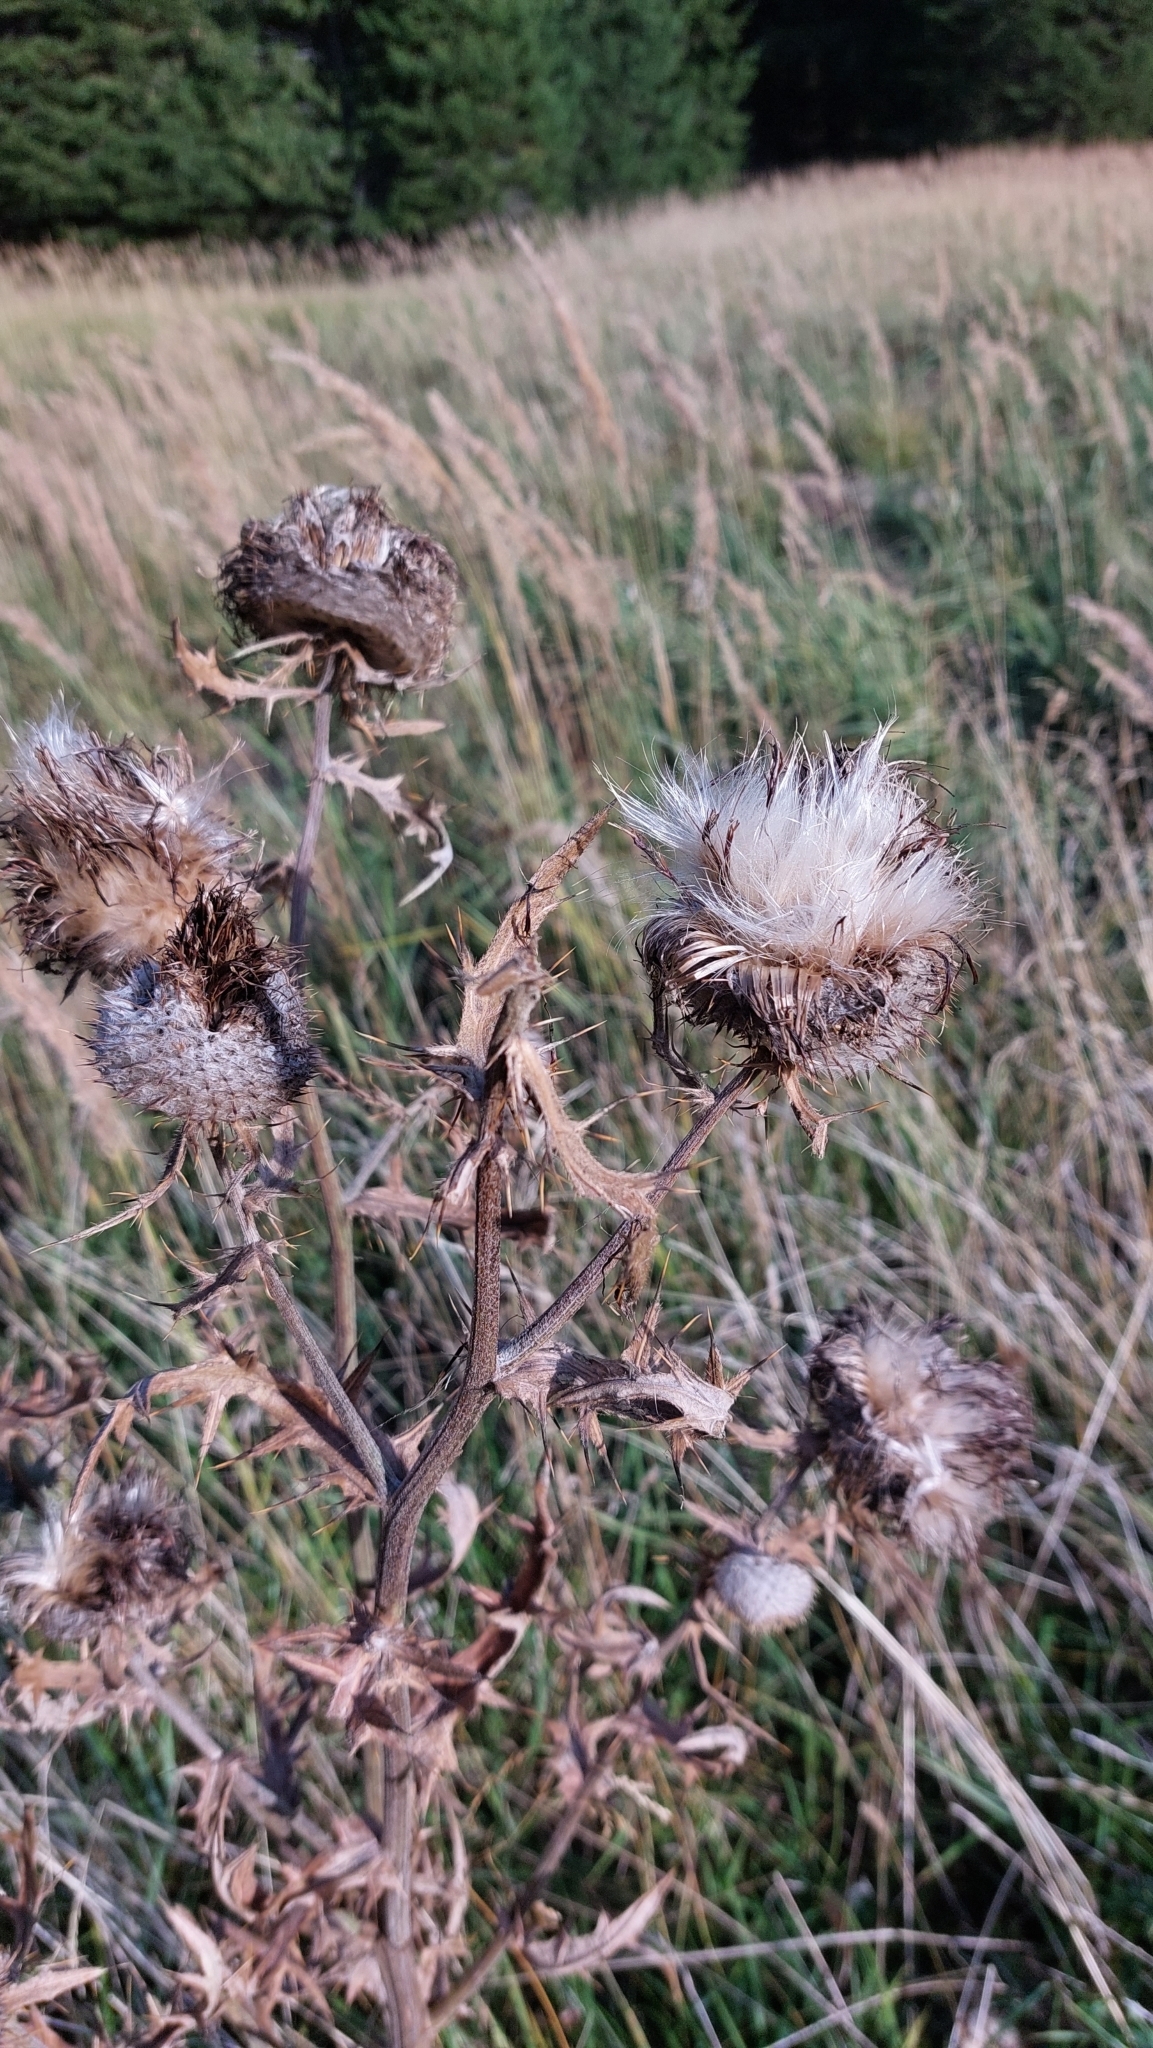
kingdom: Plantae
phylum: Tracheophyta
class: Magnoliopsida
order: Asterales
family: Asteraceae
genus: Lophiolepis
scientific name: Lophiolepis eriophora
